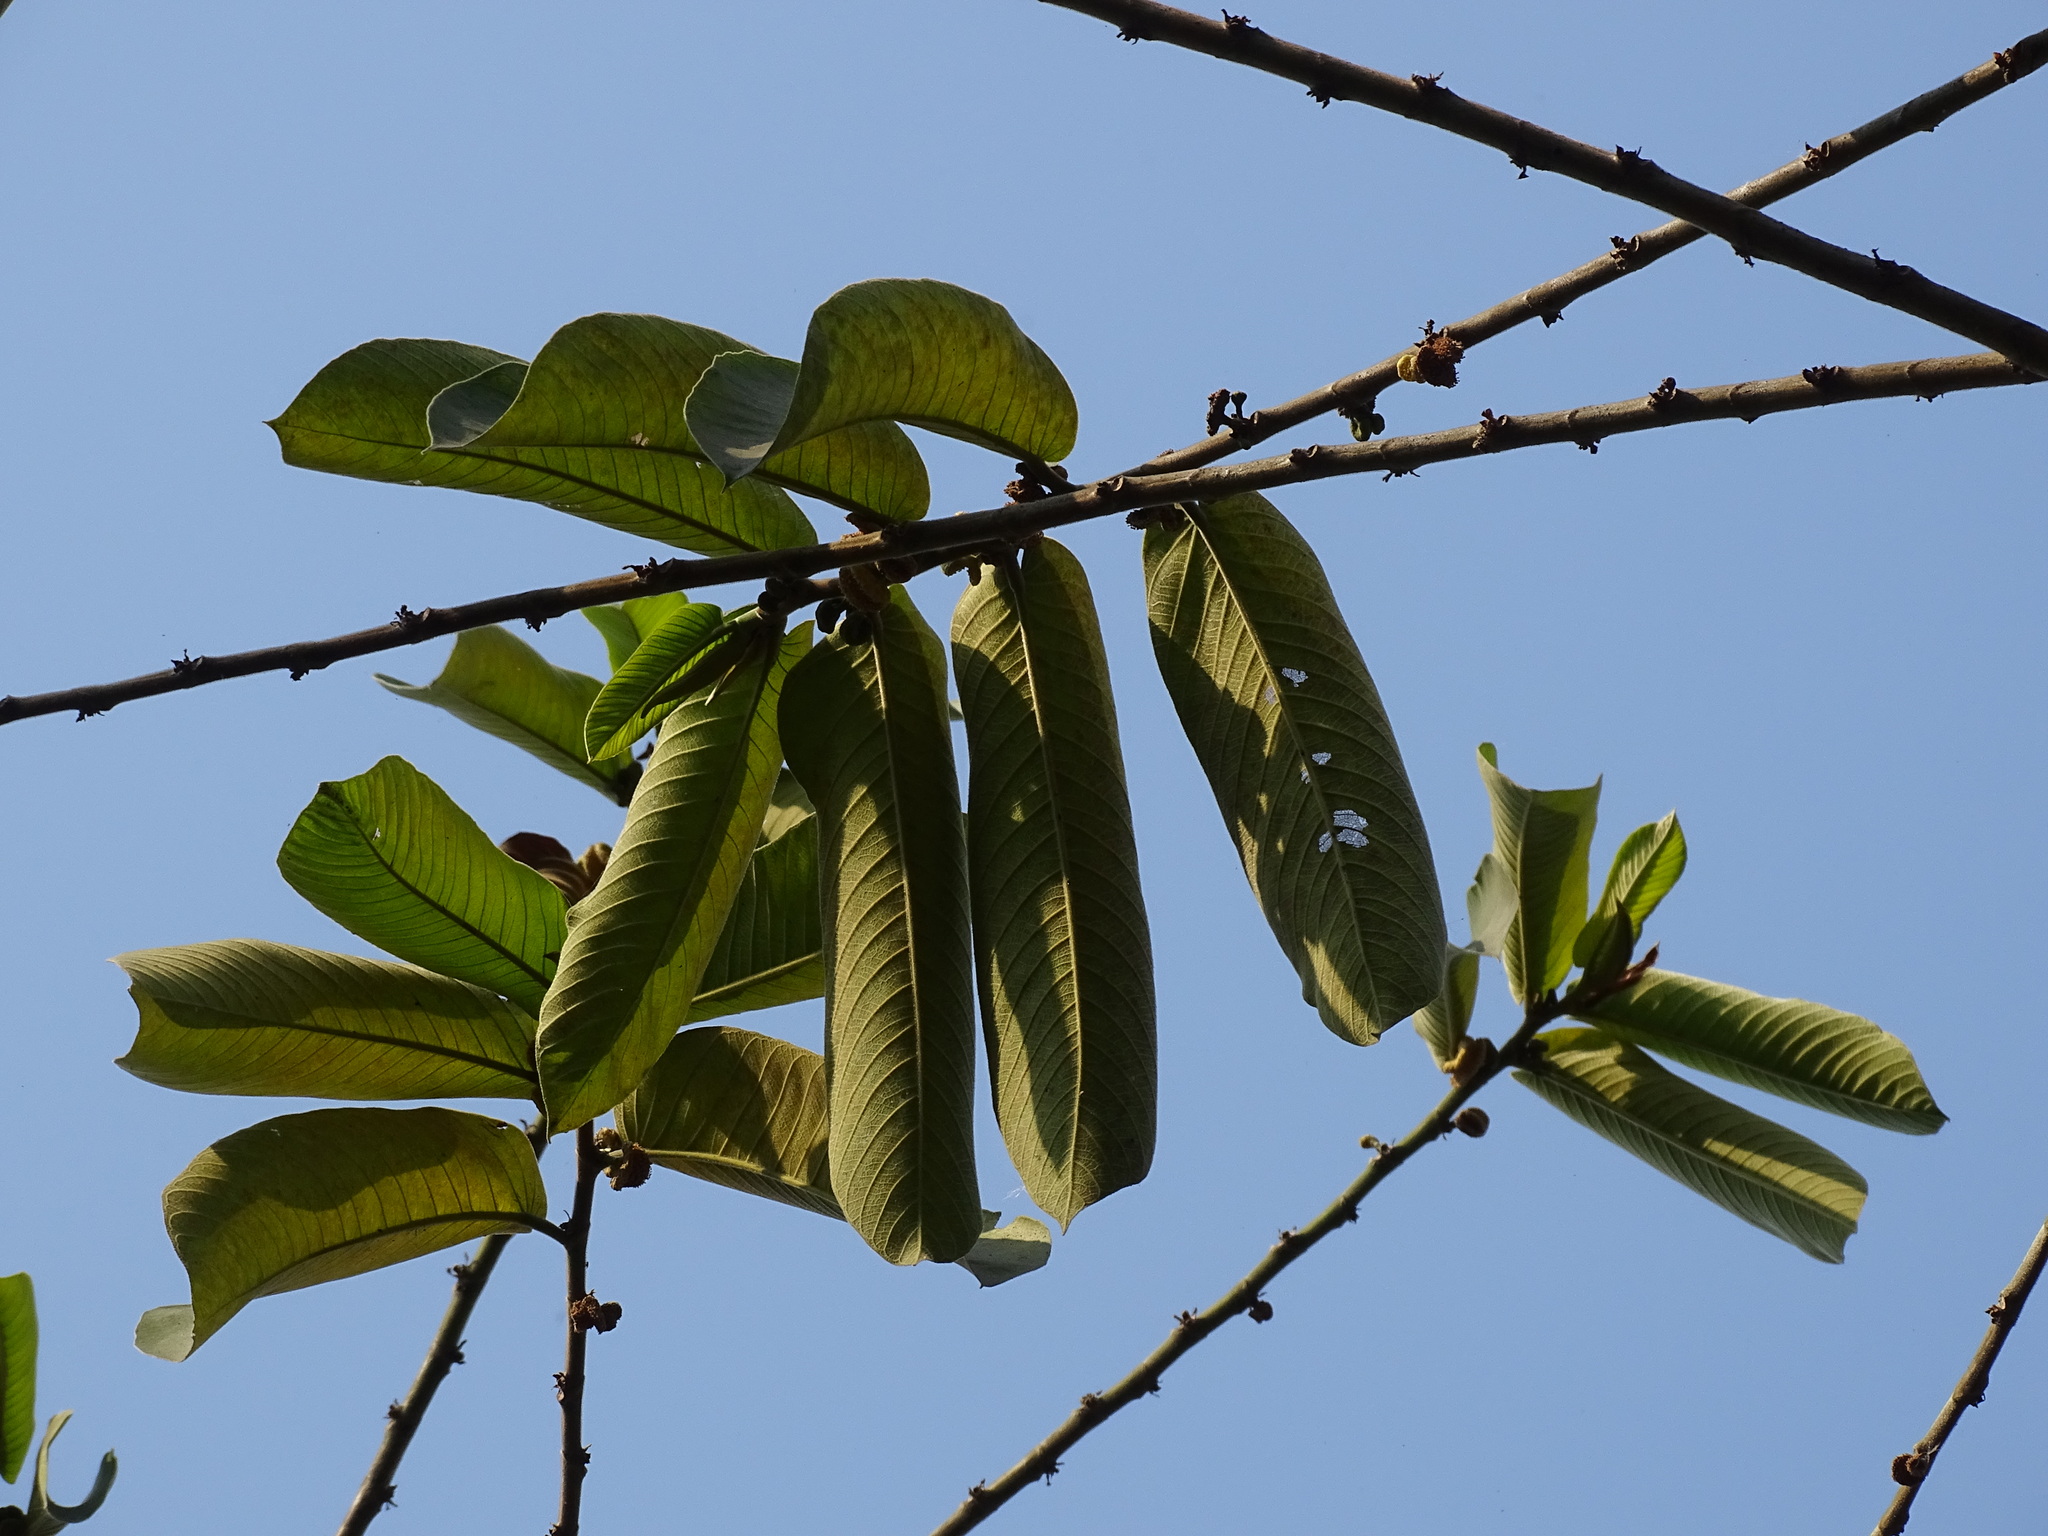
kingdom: Plantae
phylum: Tracheophyta
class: Magnoliopsida
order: Rosales
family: Moraceae
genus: Castilla
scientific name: Castilla elastica
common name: Castilla rubber
